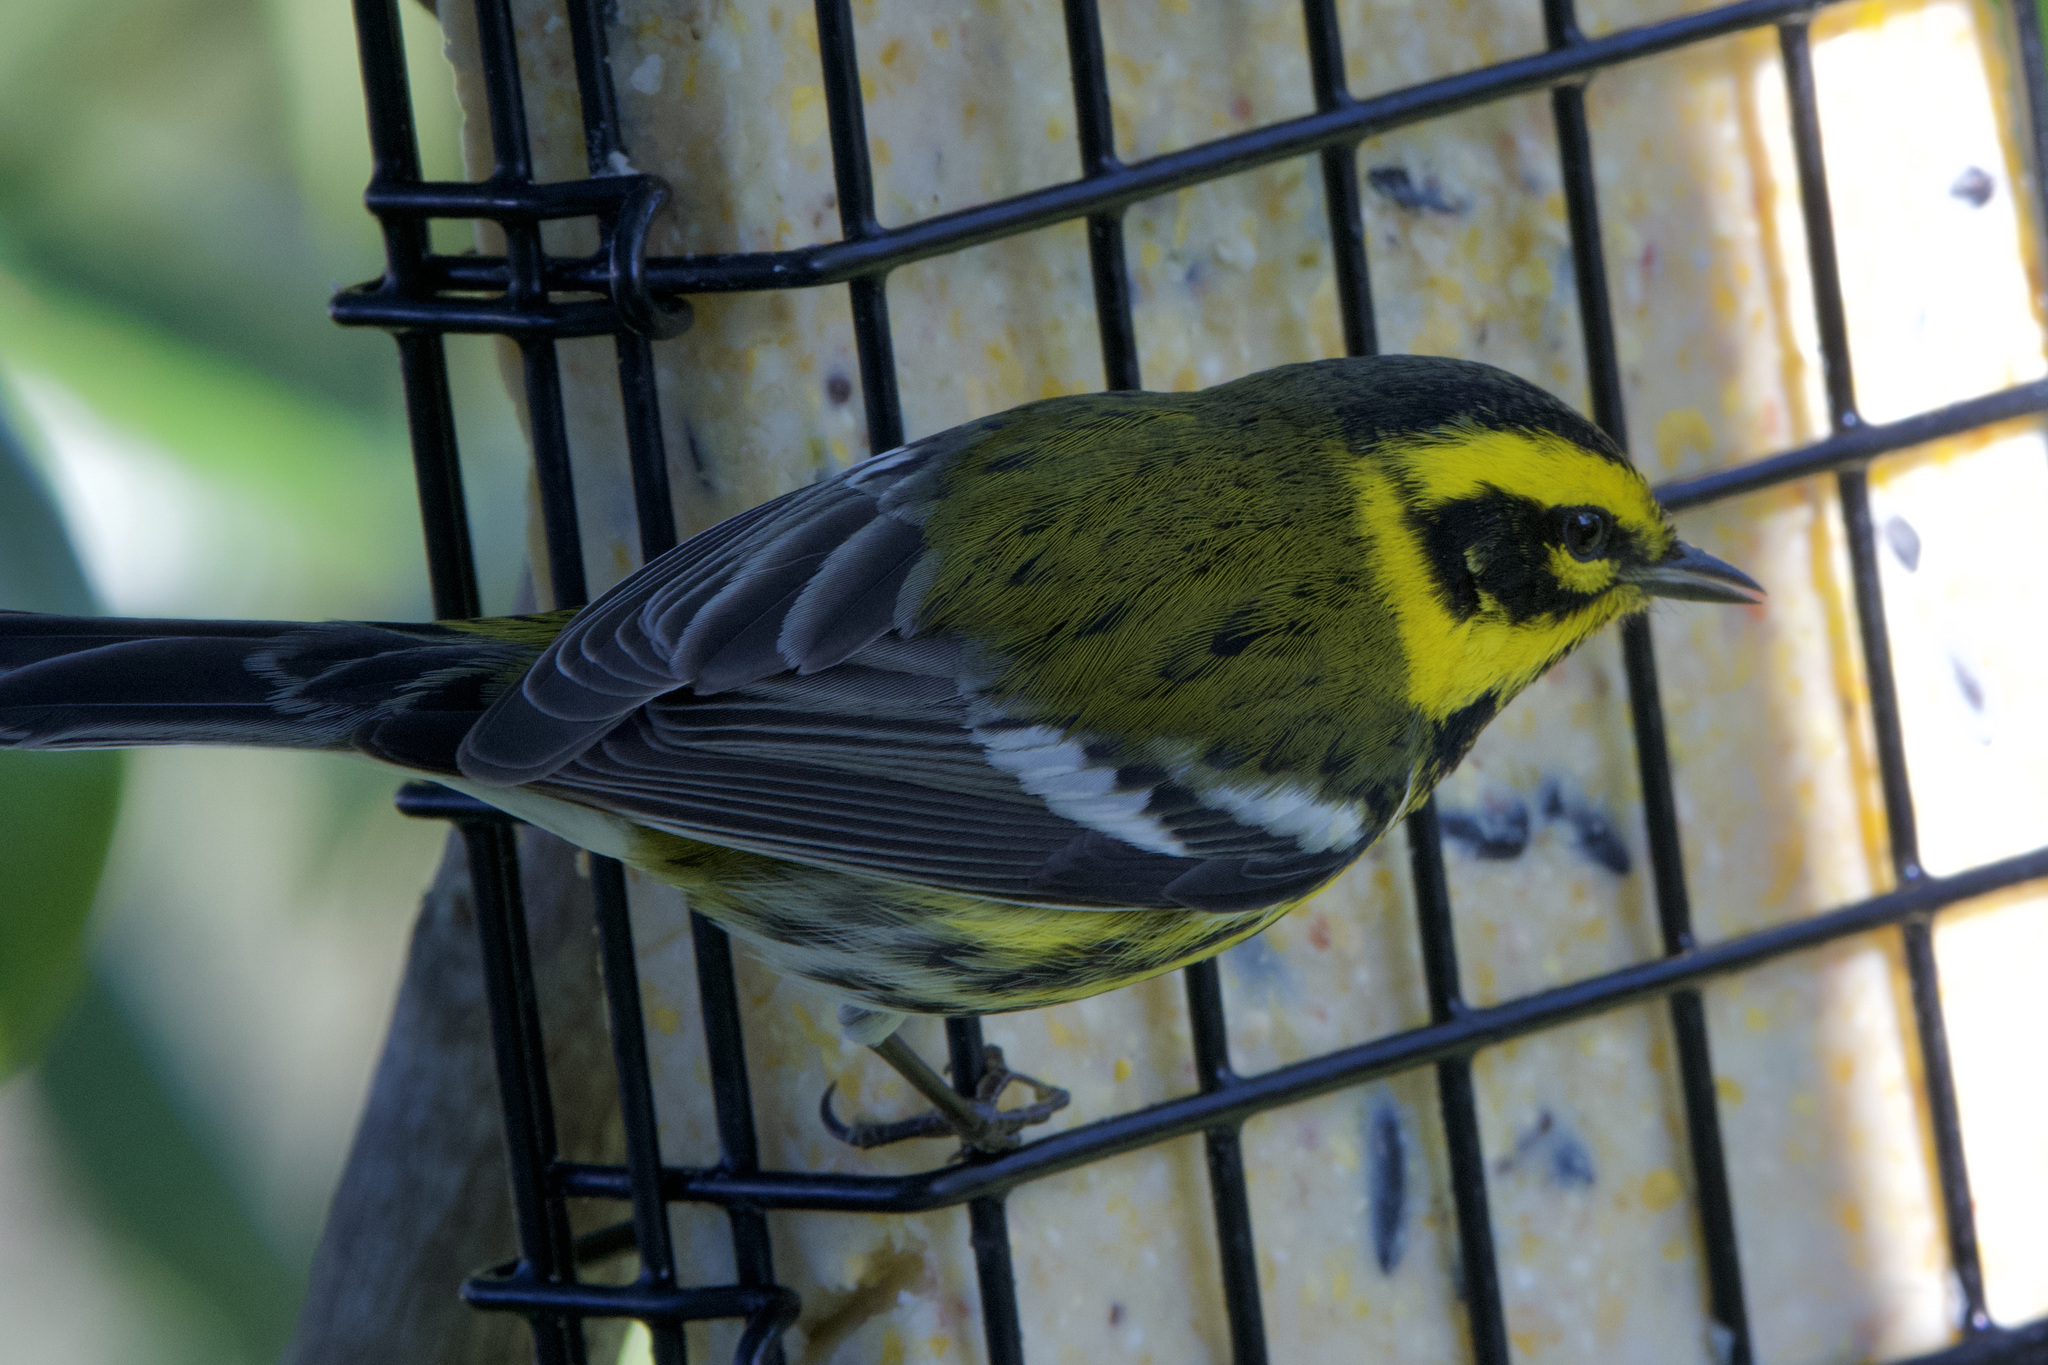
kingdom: Animalia
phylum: Chordata
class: Aves
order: Passeriformes
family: Parulidae
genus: Setophaga
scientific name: Setophaga townsendi
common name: Townsend's warbler
